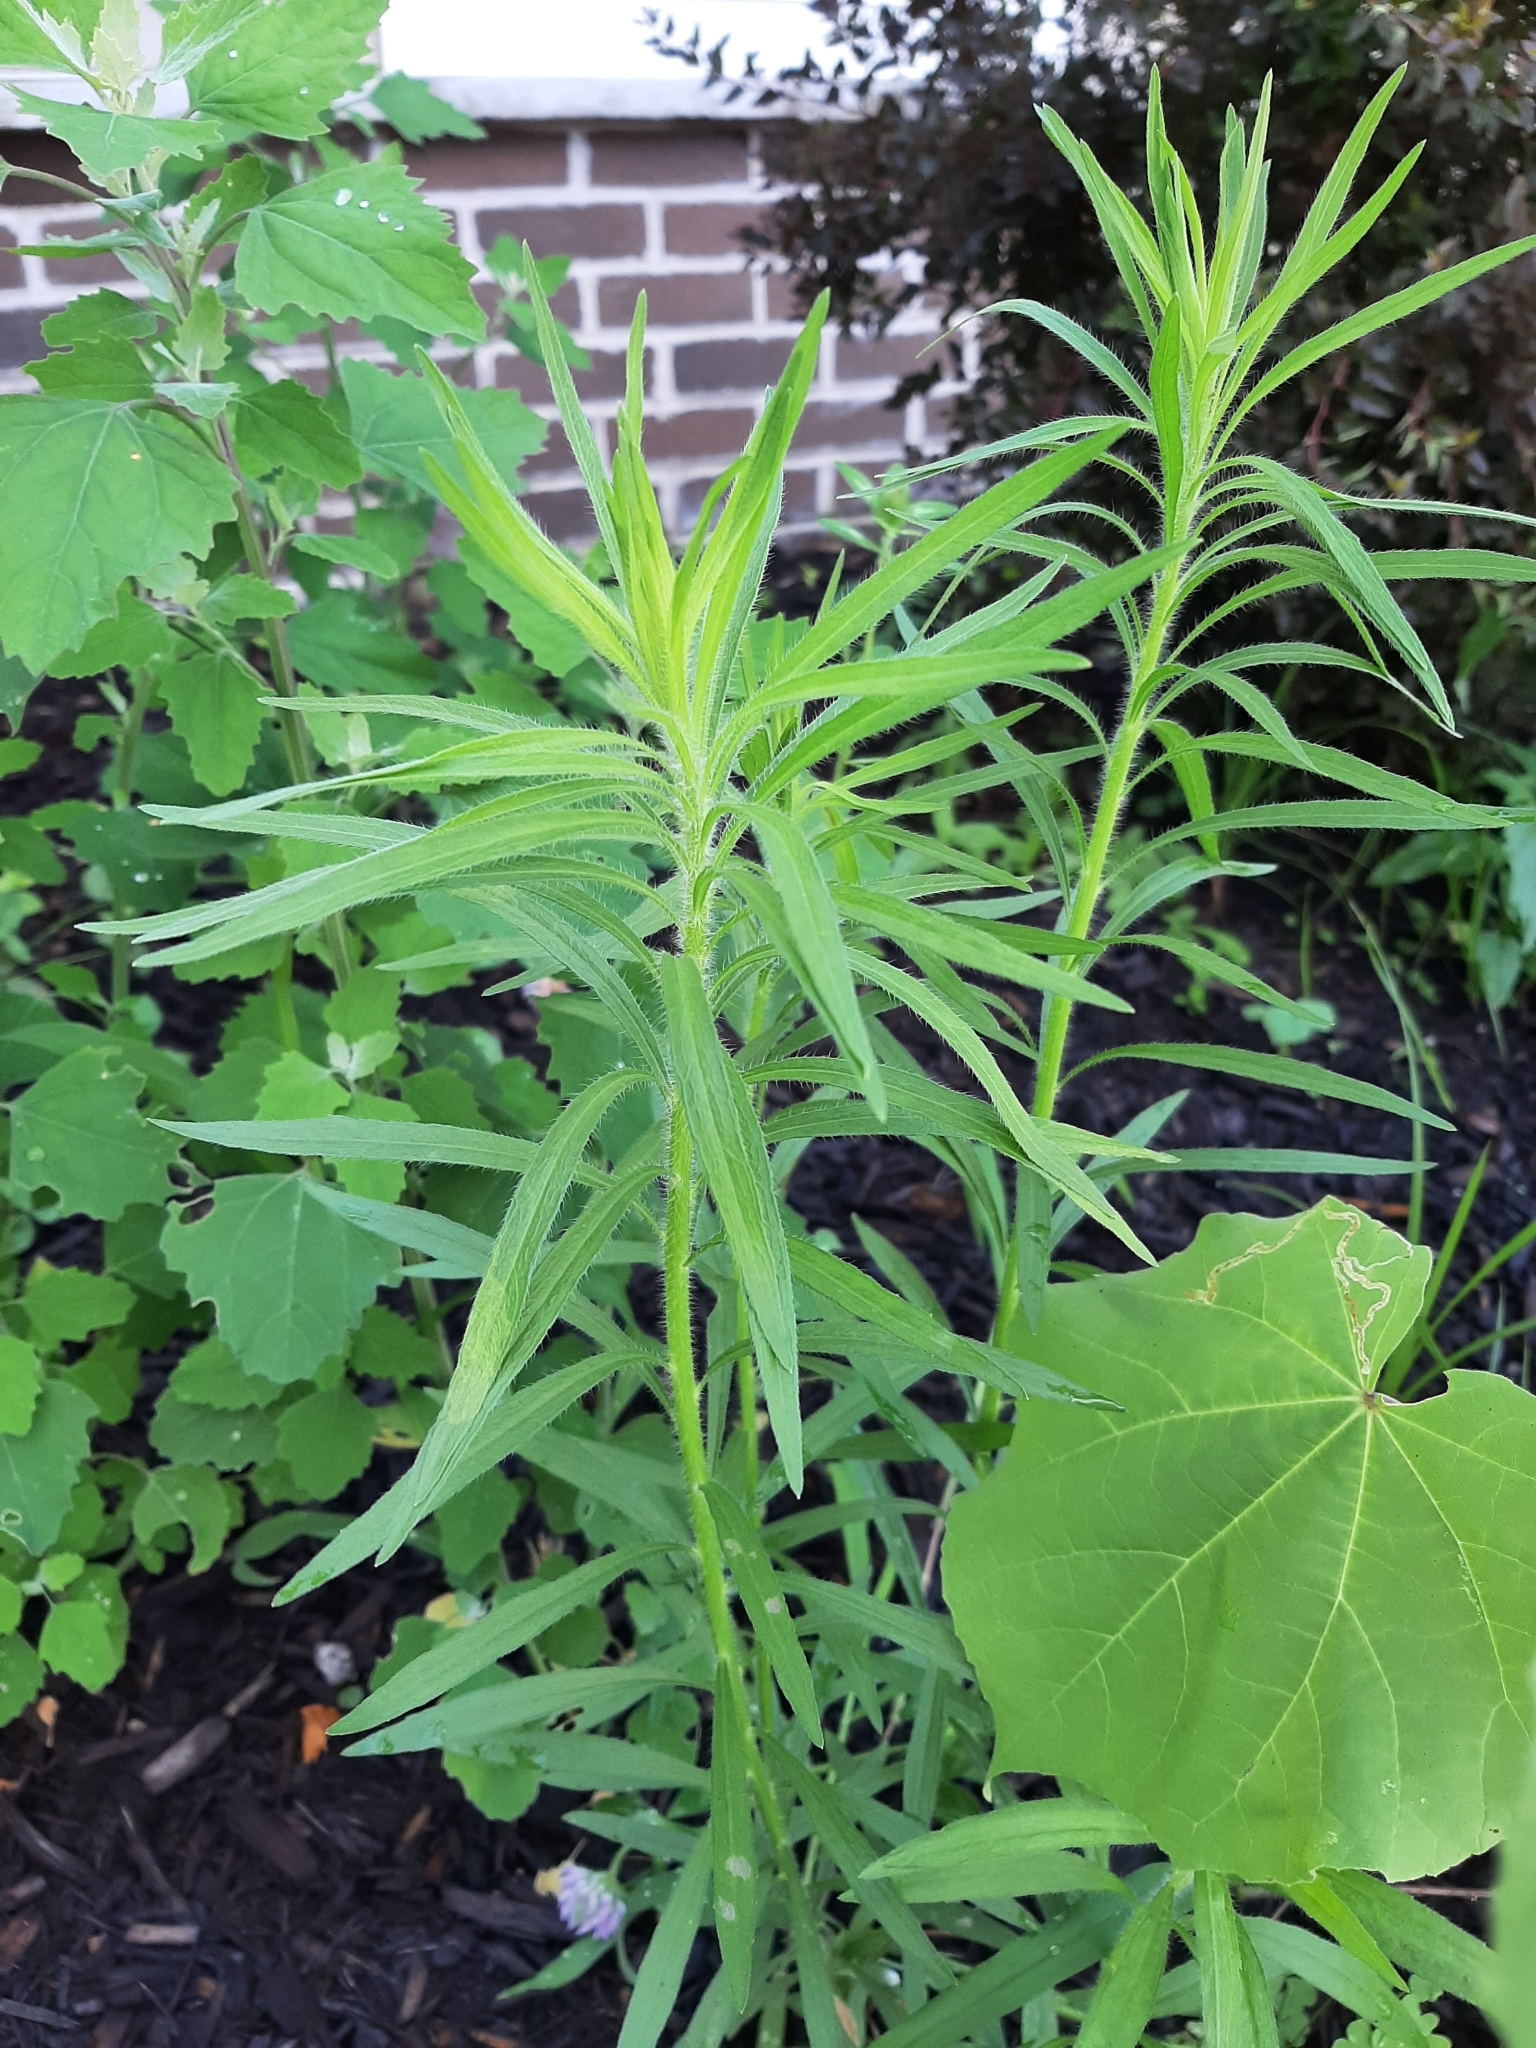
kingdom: Plantae
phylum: Tracheophyta
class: Magnoliopsida
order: Asterales
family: Asteraceae
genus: Erigeron
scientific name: Erigeron canadensis
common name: Canadian fleabane
